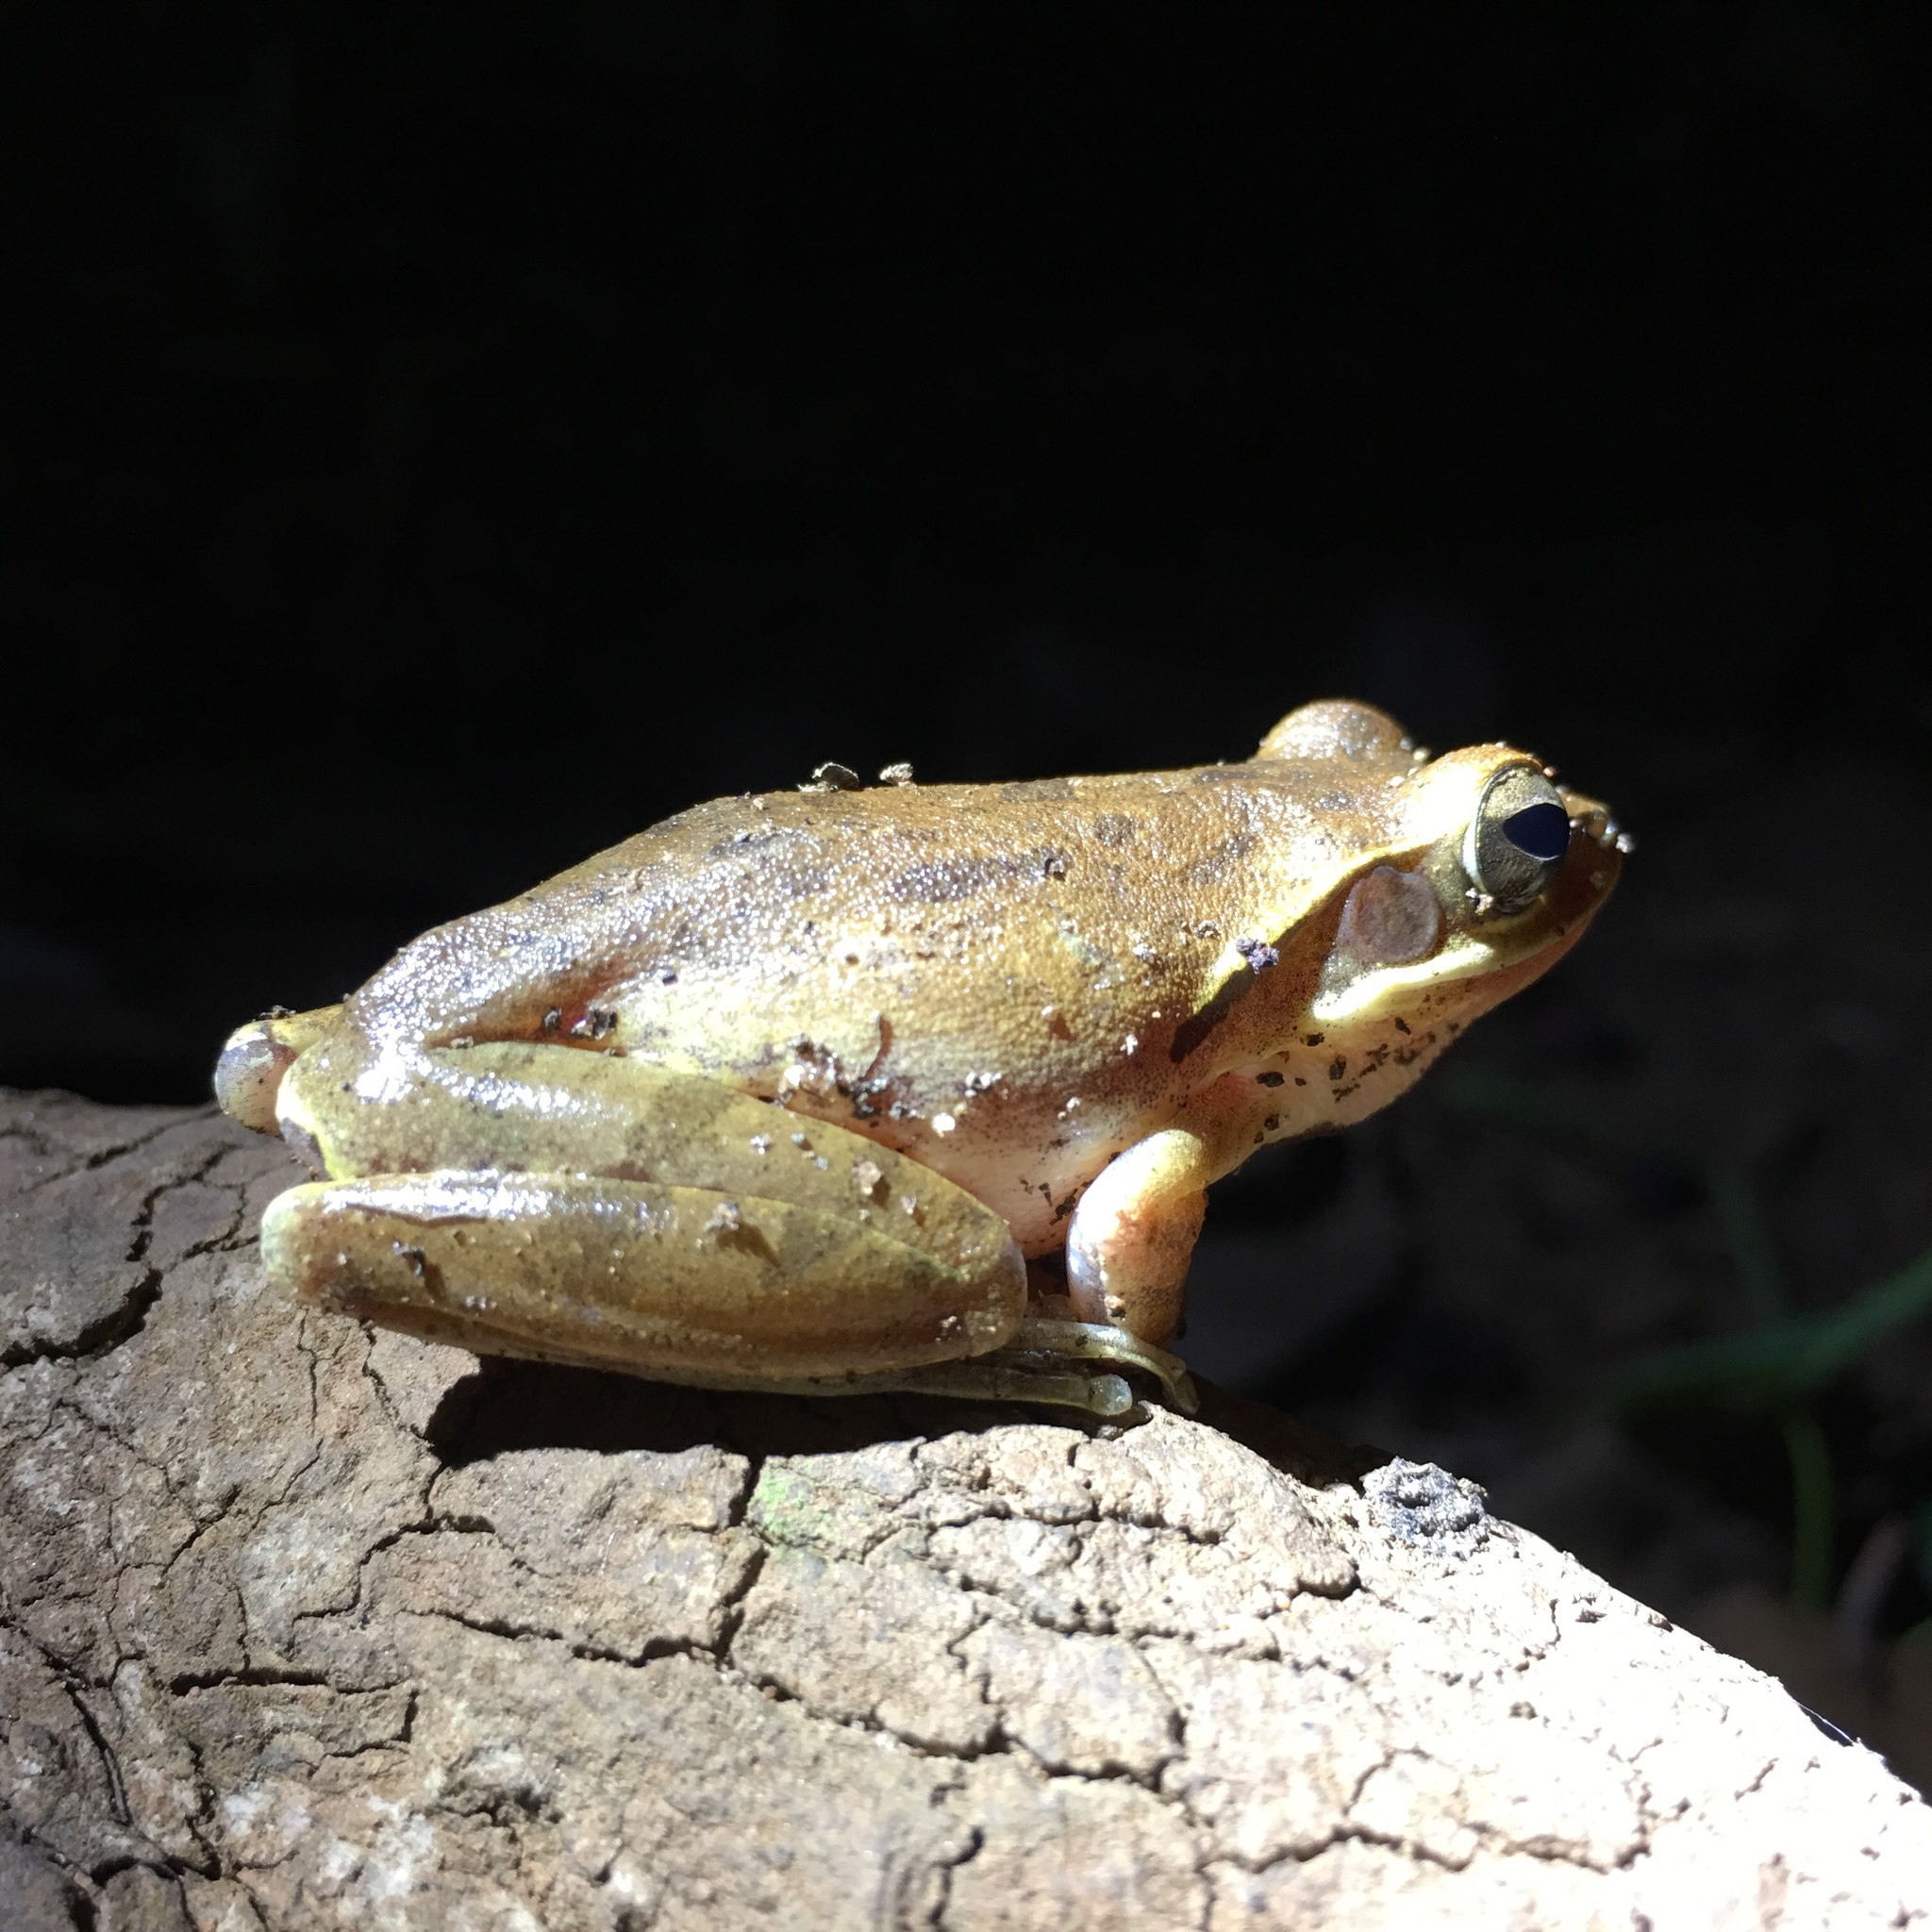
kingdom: Animalia
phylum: Chordata
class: Amphibia
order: Anura
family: Rhacophoridae
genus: Polypedates
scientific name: Polypedates maculatus
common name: Himalayan tree frog
